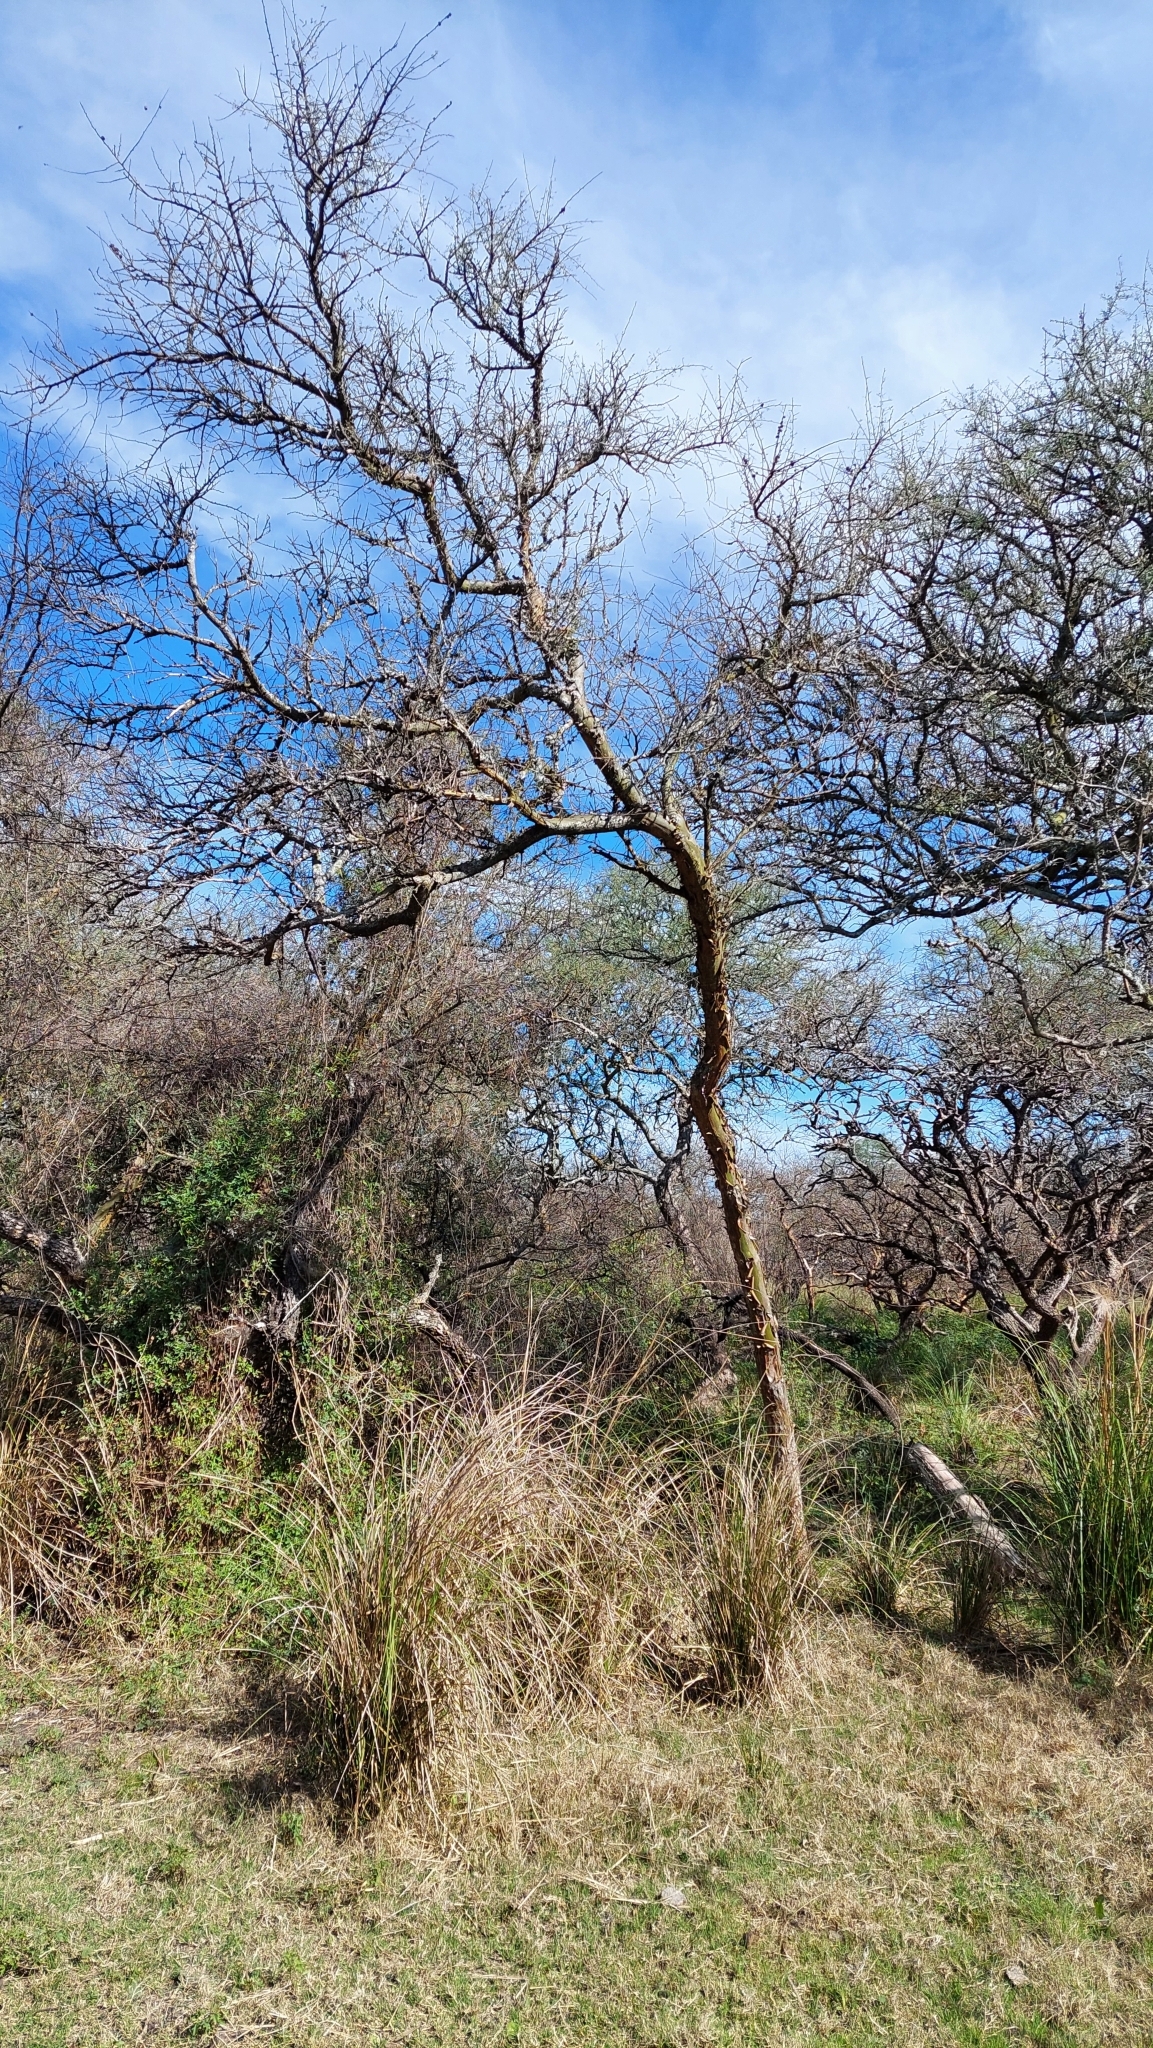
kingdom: Plantae
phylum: Tracheophyta
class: Magnoliopsida
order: Fabales
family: Fabaceae
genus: Geoffroea
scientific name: Geoffroea decorticans
